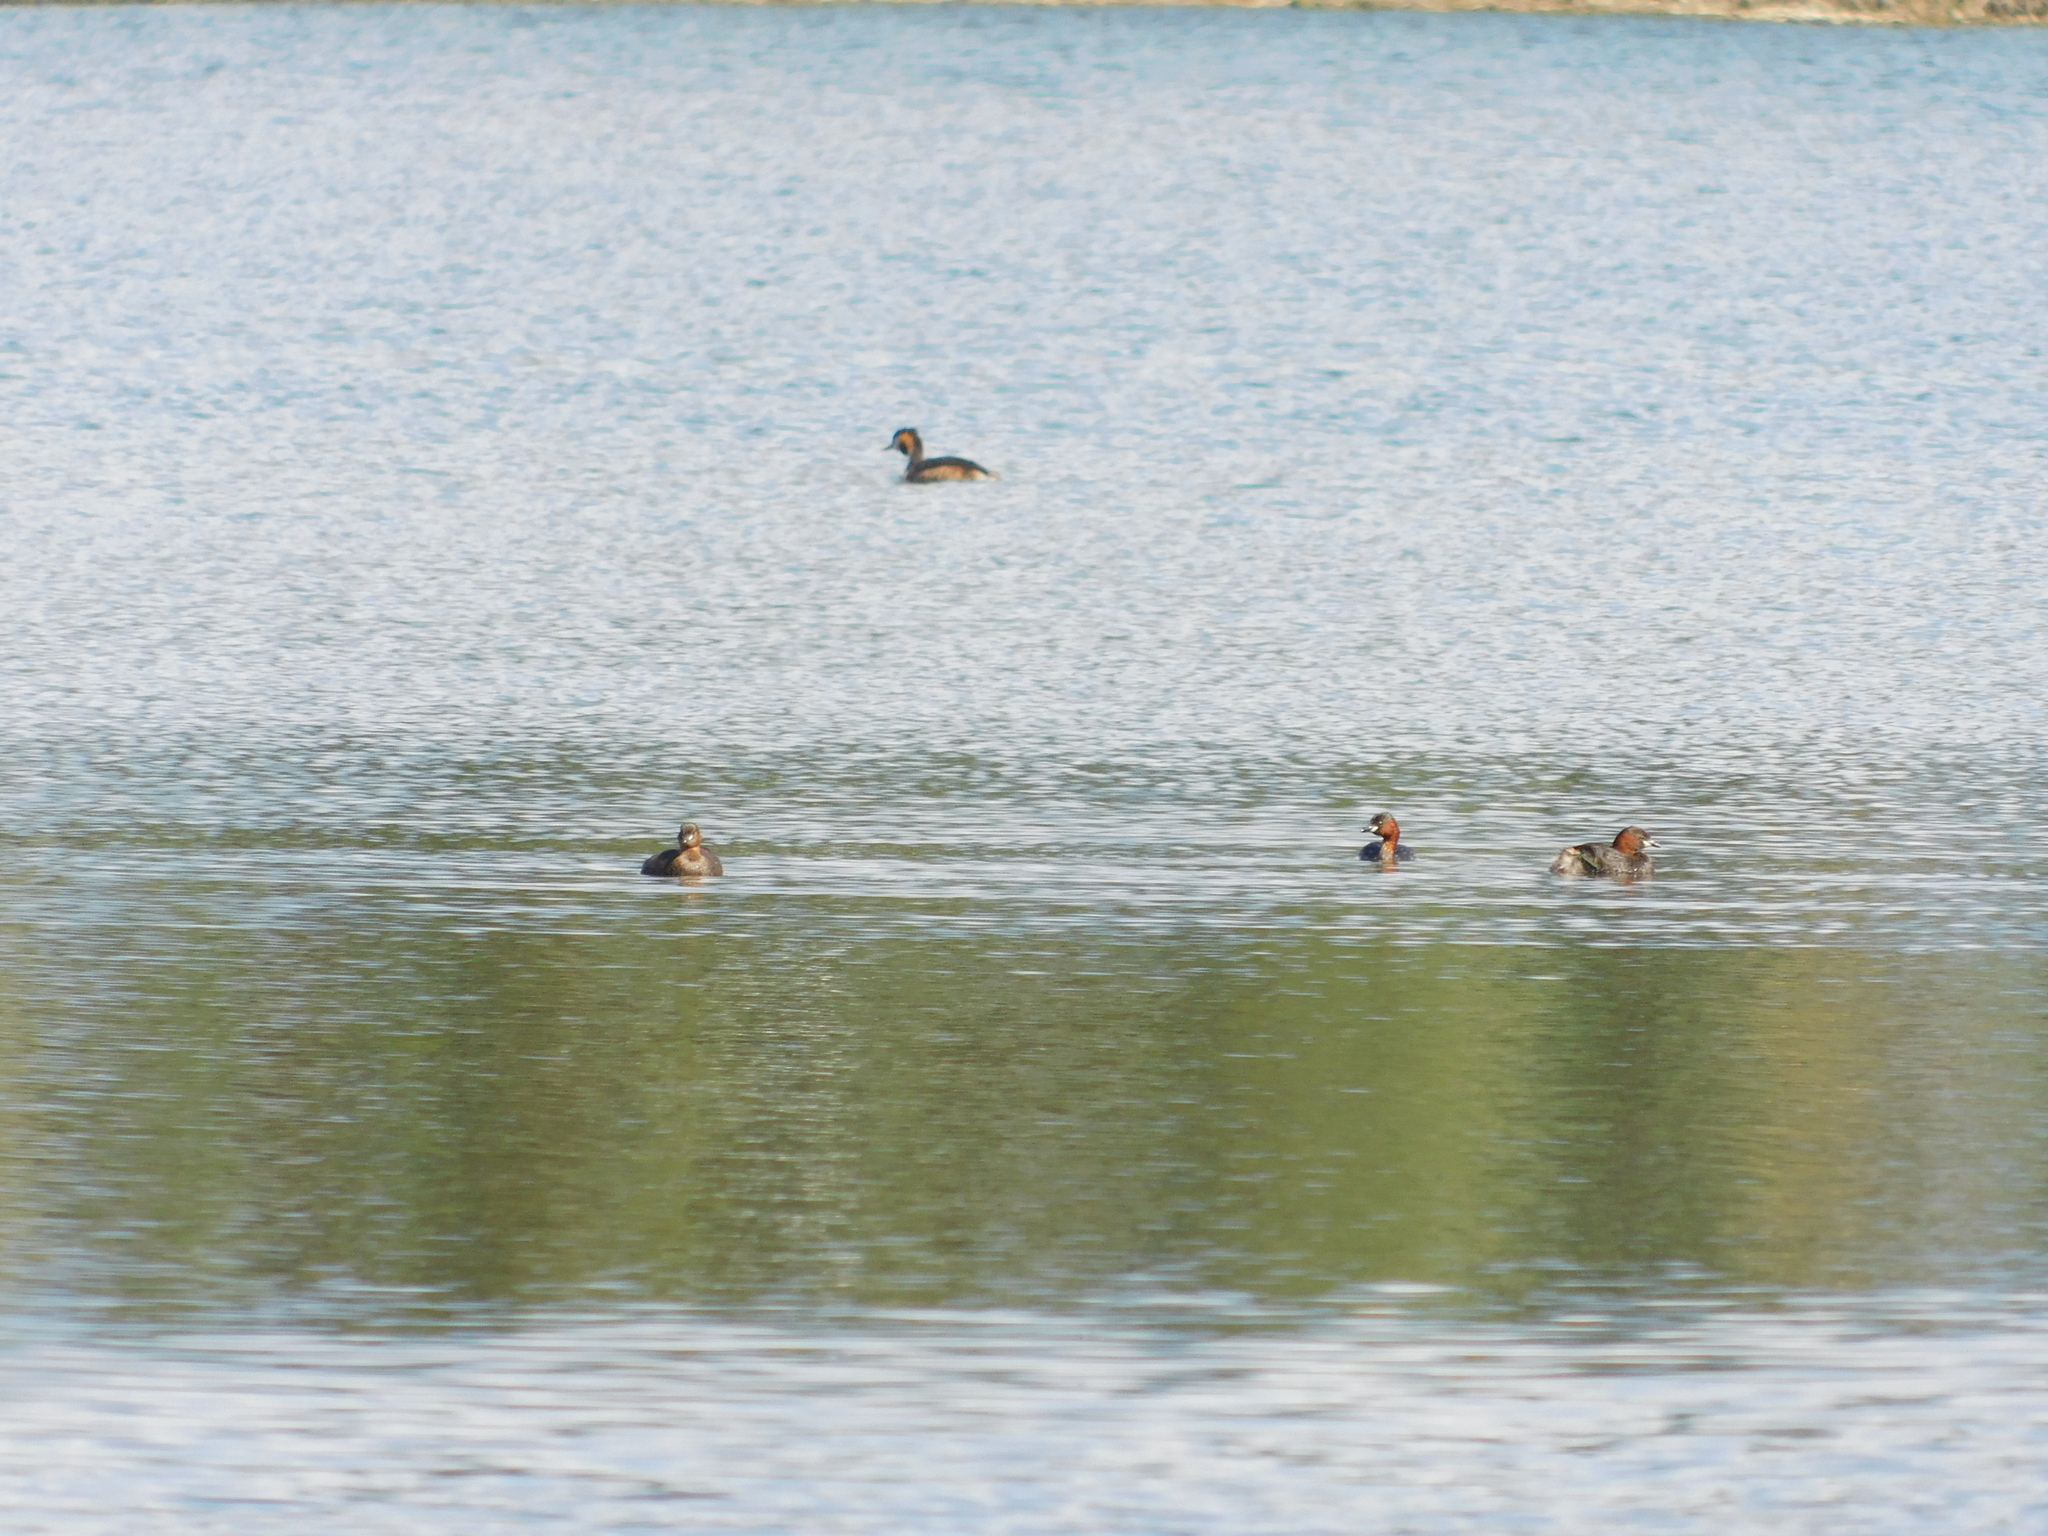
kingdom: Animalia
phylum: Chordata
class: Aves
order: Podicipediformes
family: Podicipedidae
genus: Tachybaptus
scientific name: Tachybaptus ruficollis
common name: Little grebe
